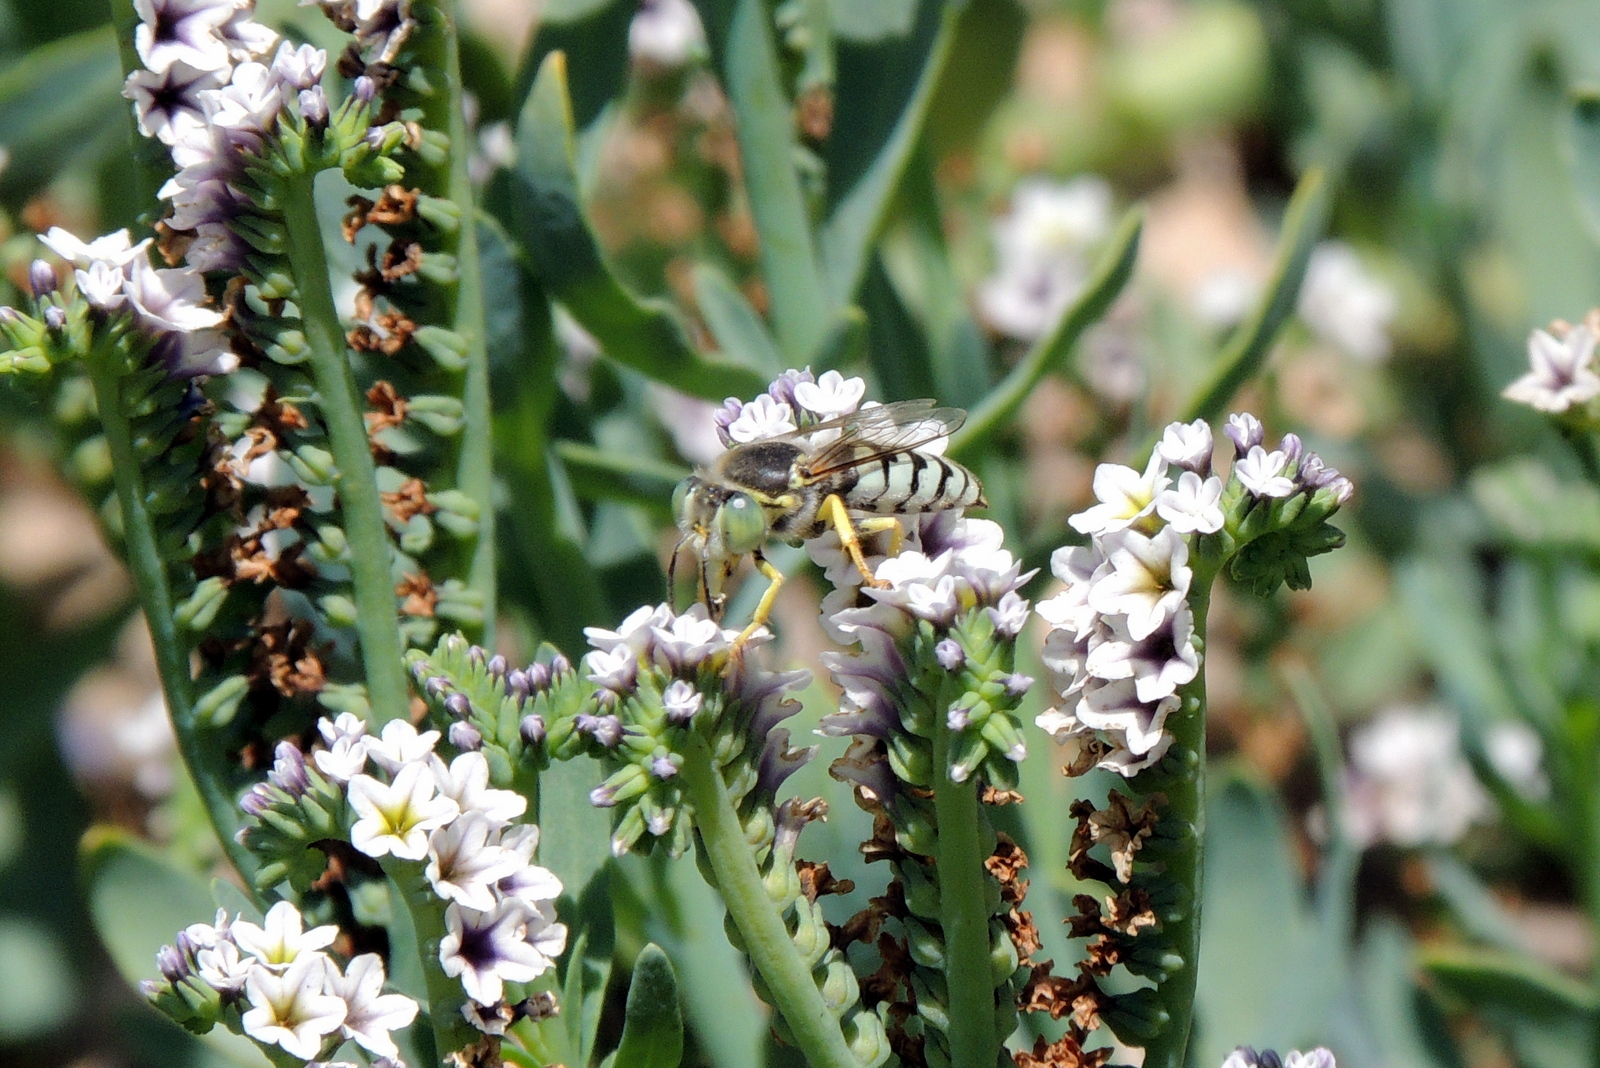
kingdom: Animalia
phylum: Arthropoda
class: Insecta
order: Hymenoptera
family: Crabronidae
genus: Bembix
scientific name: Bembix americana
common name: American sand wasp
